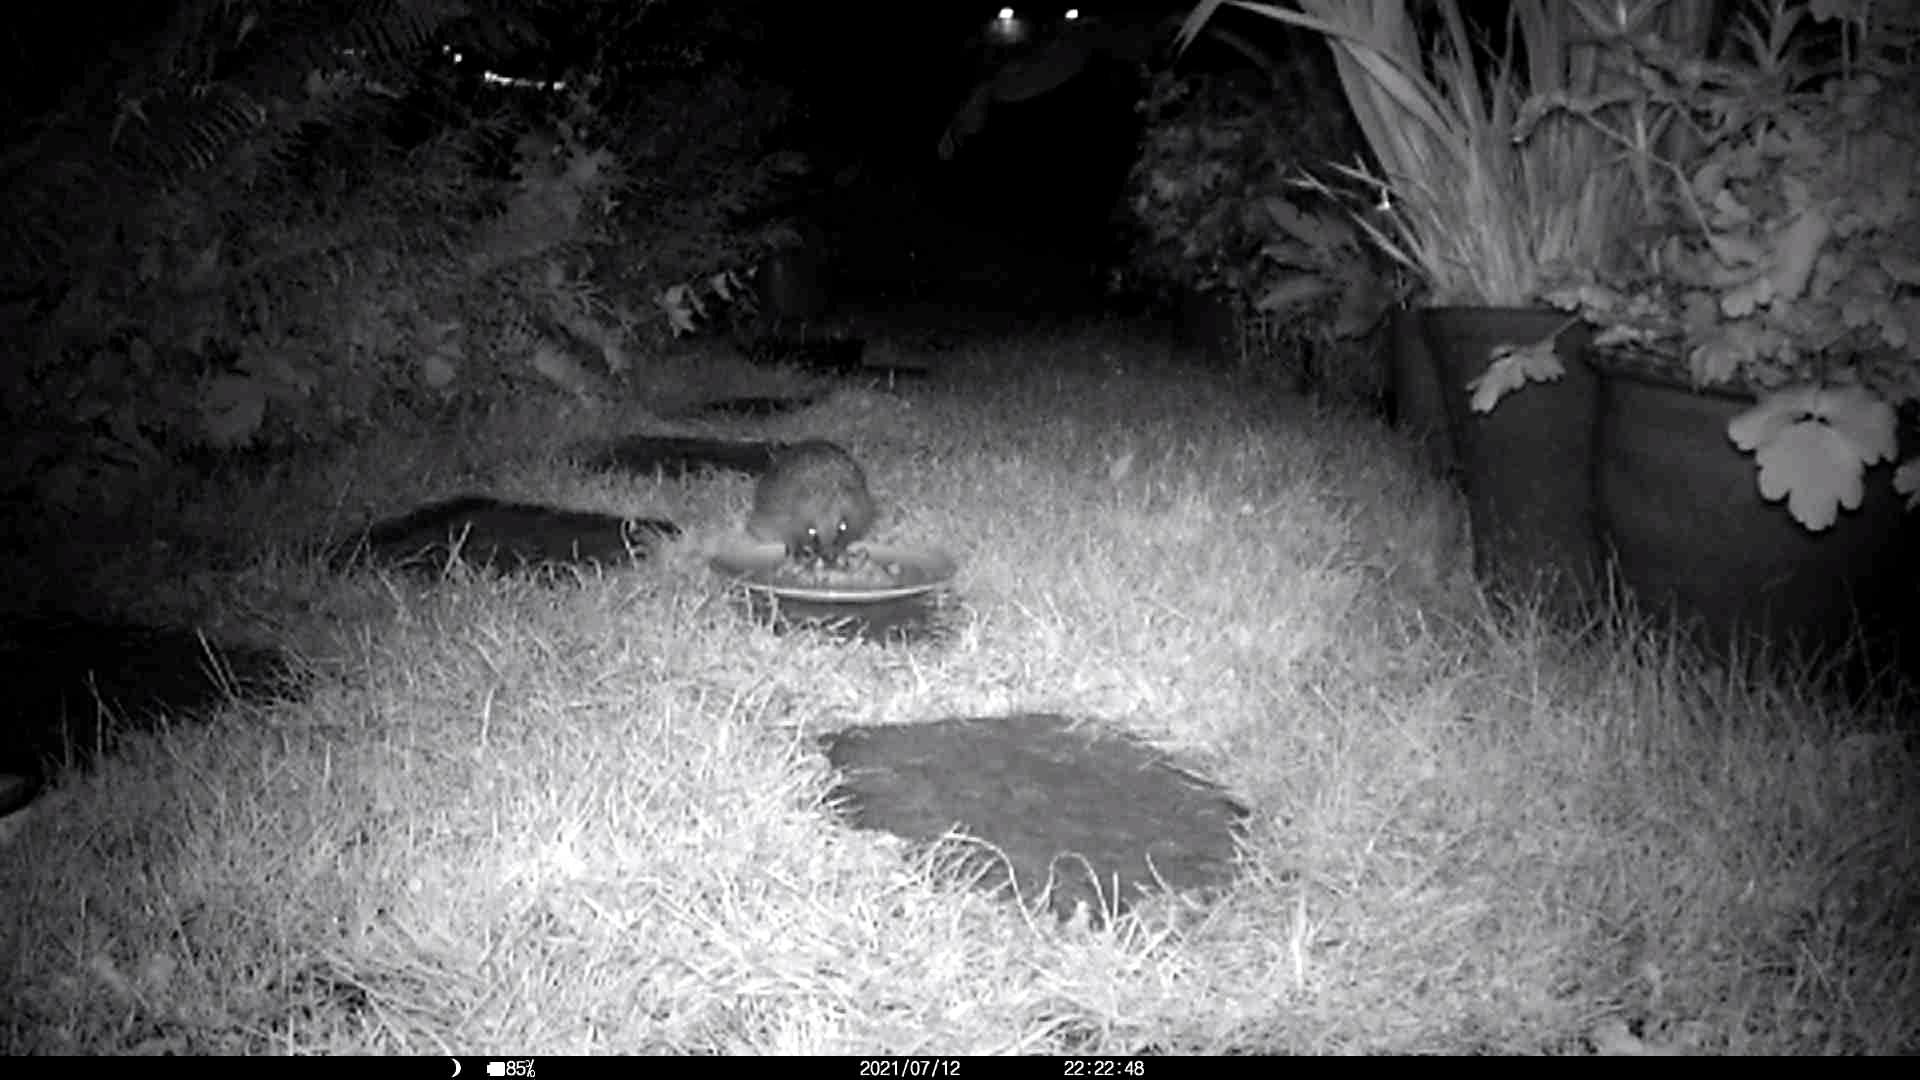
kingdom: Animalia
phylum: Chordata
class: Mammalia
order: Erinaceomorpha
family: Erinaceidae
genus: Erinaceus
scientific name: Erinaceus europaeus
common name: West european hedgehog
